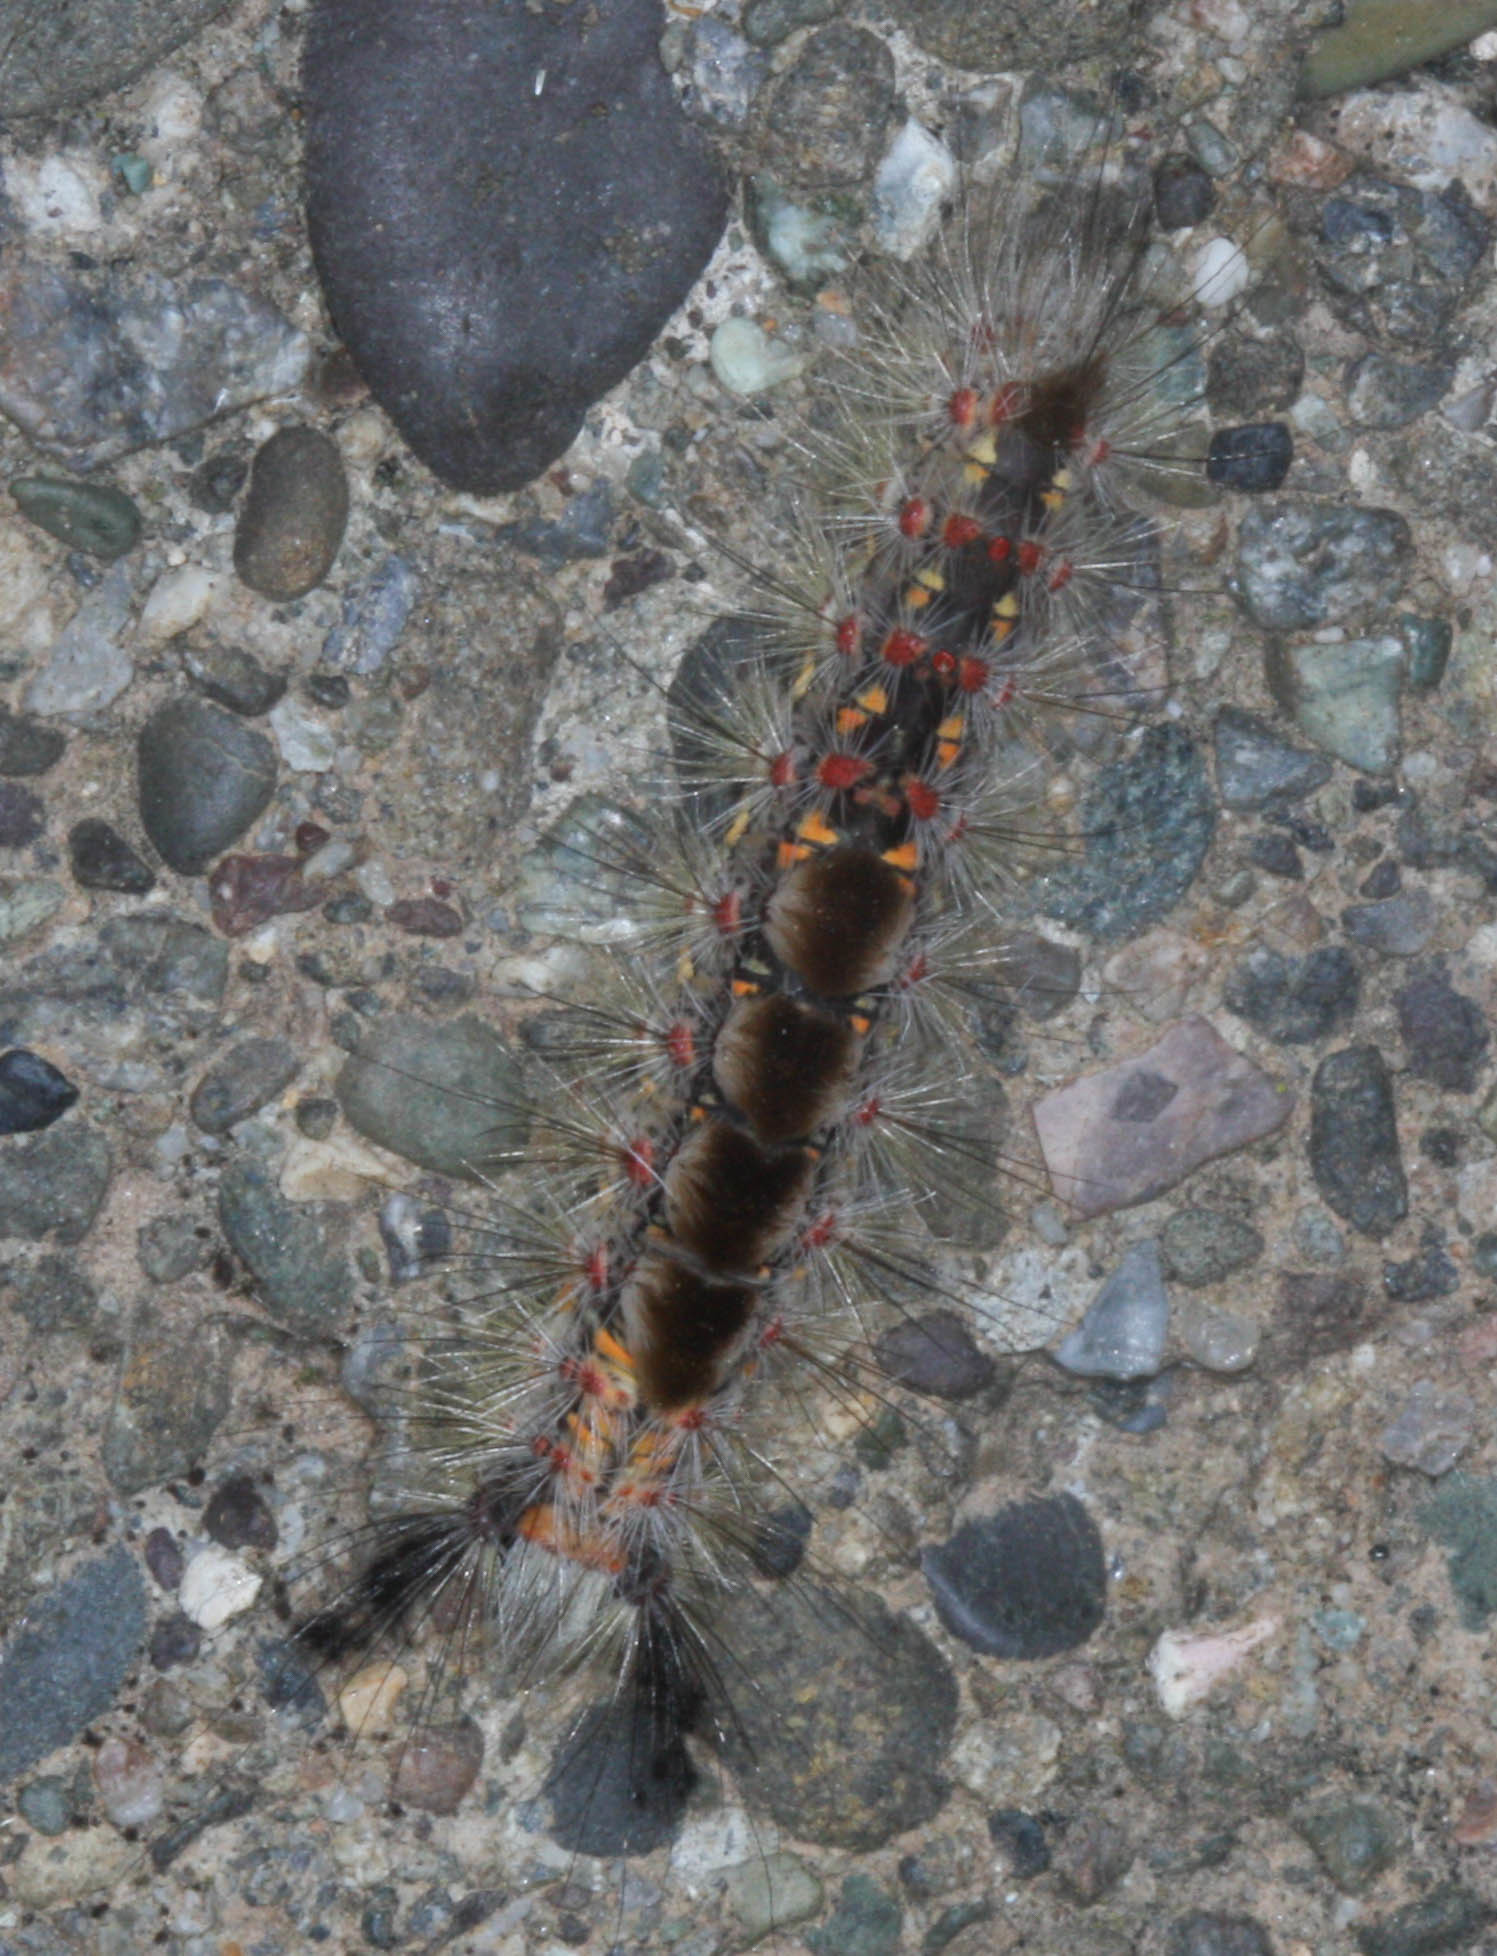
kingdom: Animalia
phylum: Arthropoda
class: Insecta
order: Lepidoptera
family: Erebidae
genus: Orgyia
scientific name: Orgyia vetusta
